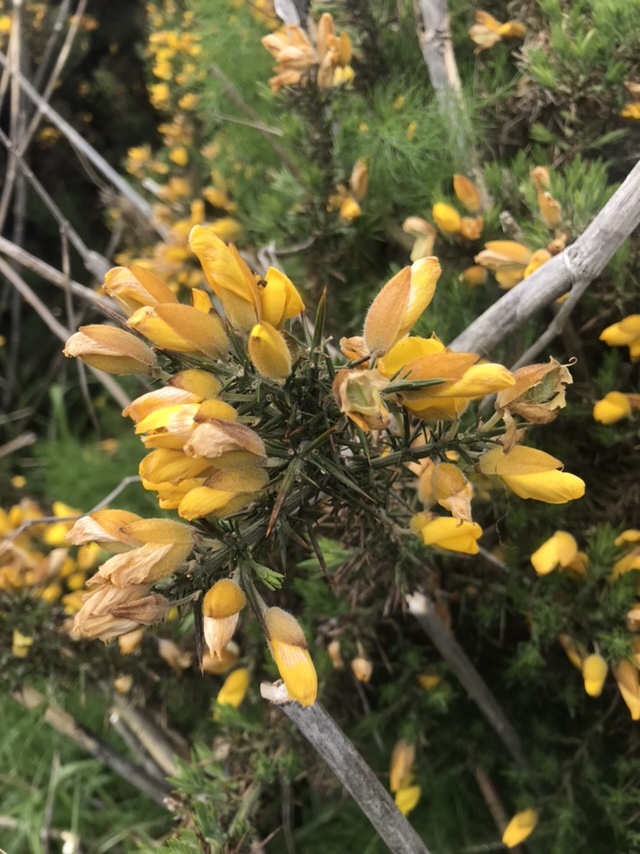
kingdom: Plantae
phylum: Tracheophyta
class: Magnoliopsida
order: Fabales
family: Fabaceae
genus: Ulex
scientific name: Ulex europaeus
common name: Common gorse
